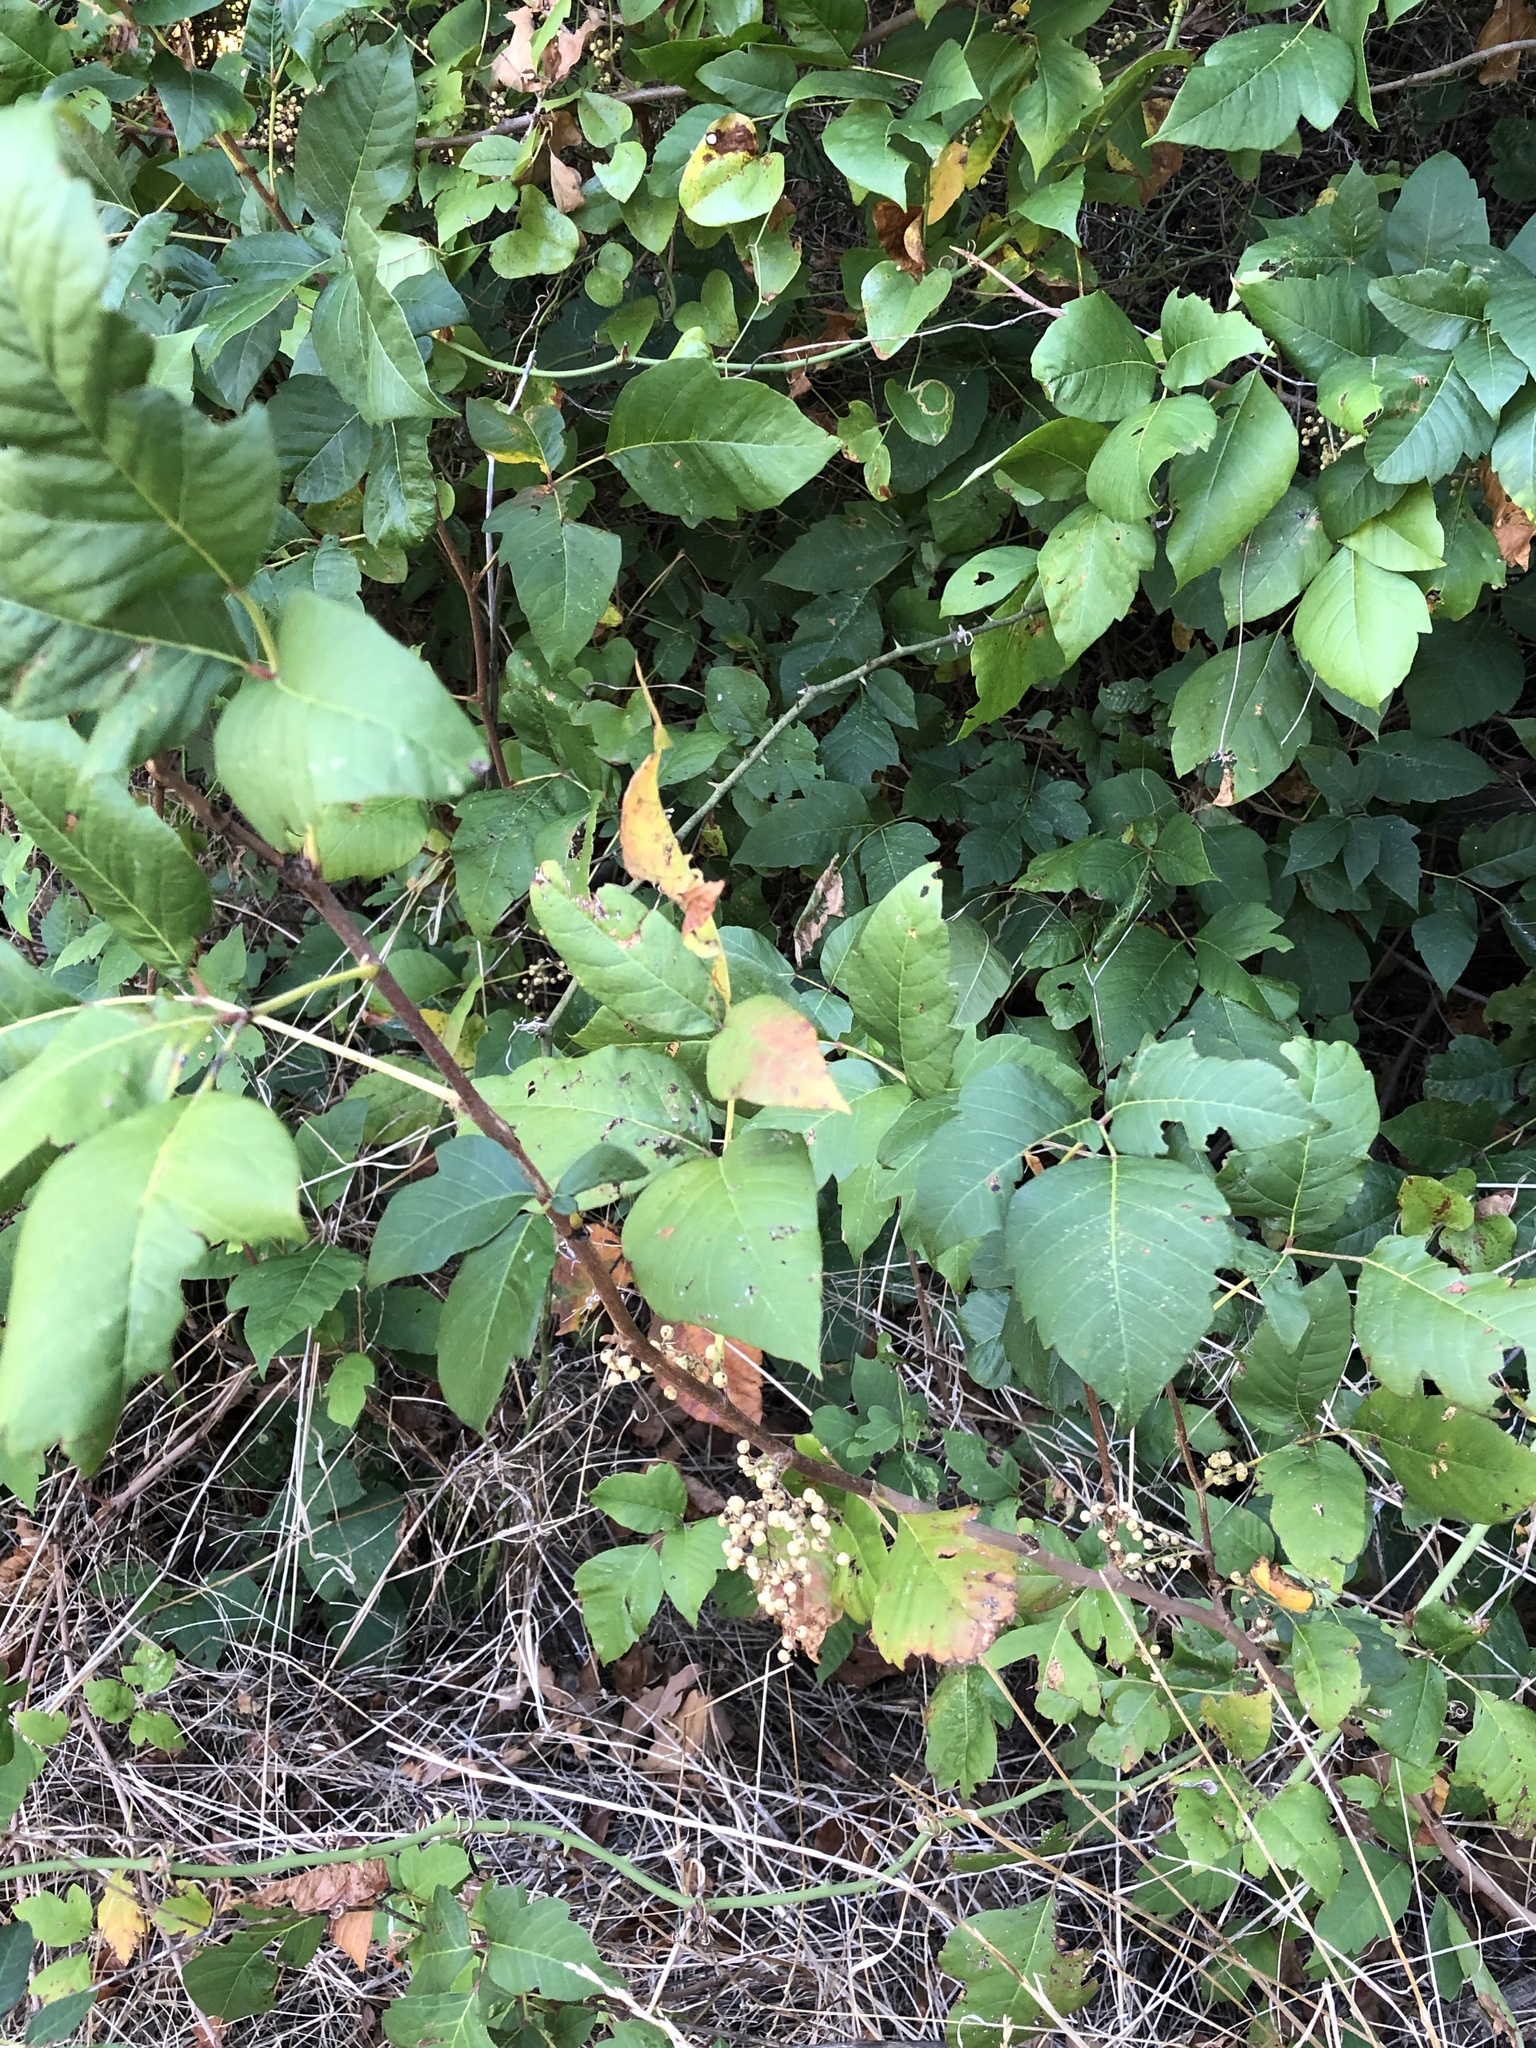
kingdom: Plantae
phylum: Tracheophyta
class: Magnoliopsida
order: Sapindales
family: Anacardiaceae
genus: Toxicodendron
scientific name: Toxicodendron radicans
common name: Poison ivy
